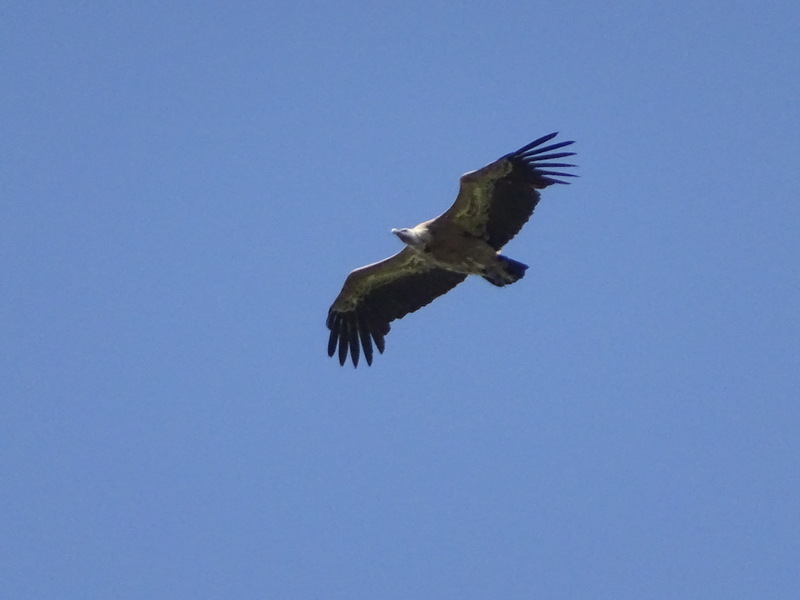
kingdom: Animalia
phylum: Chordata
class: Aves
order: Accipitriformes
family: Accipitridae
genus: Gyps
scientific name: Gyps fulvus
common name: Griffon vulture
